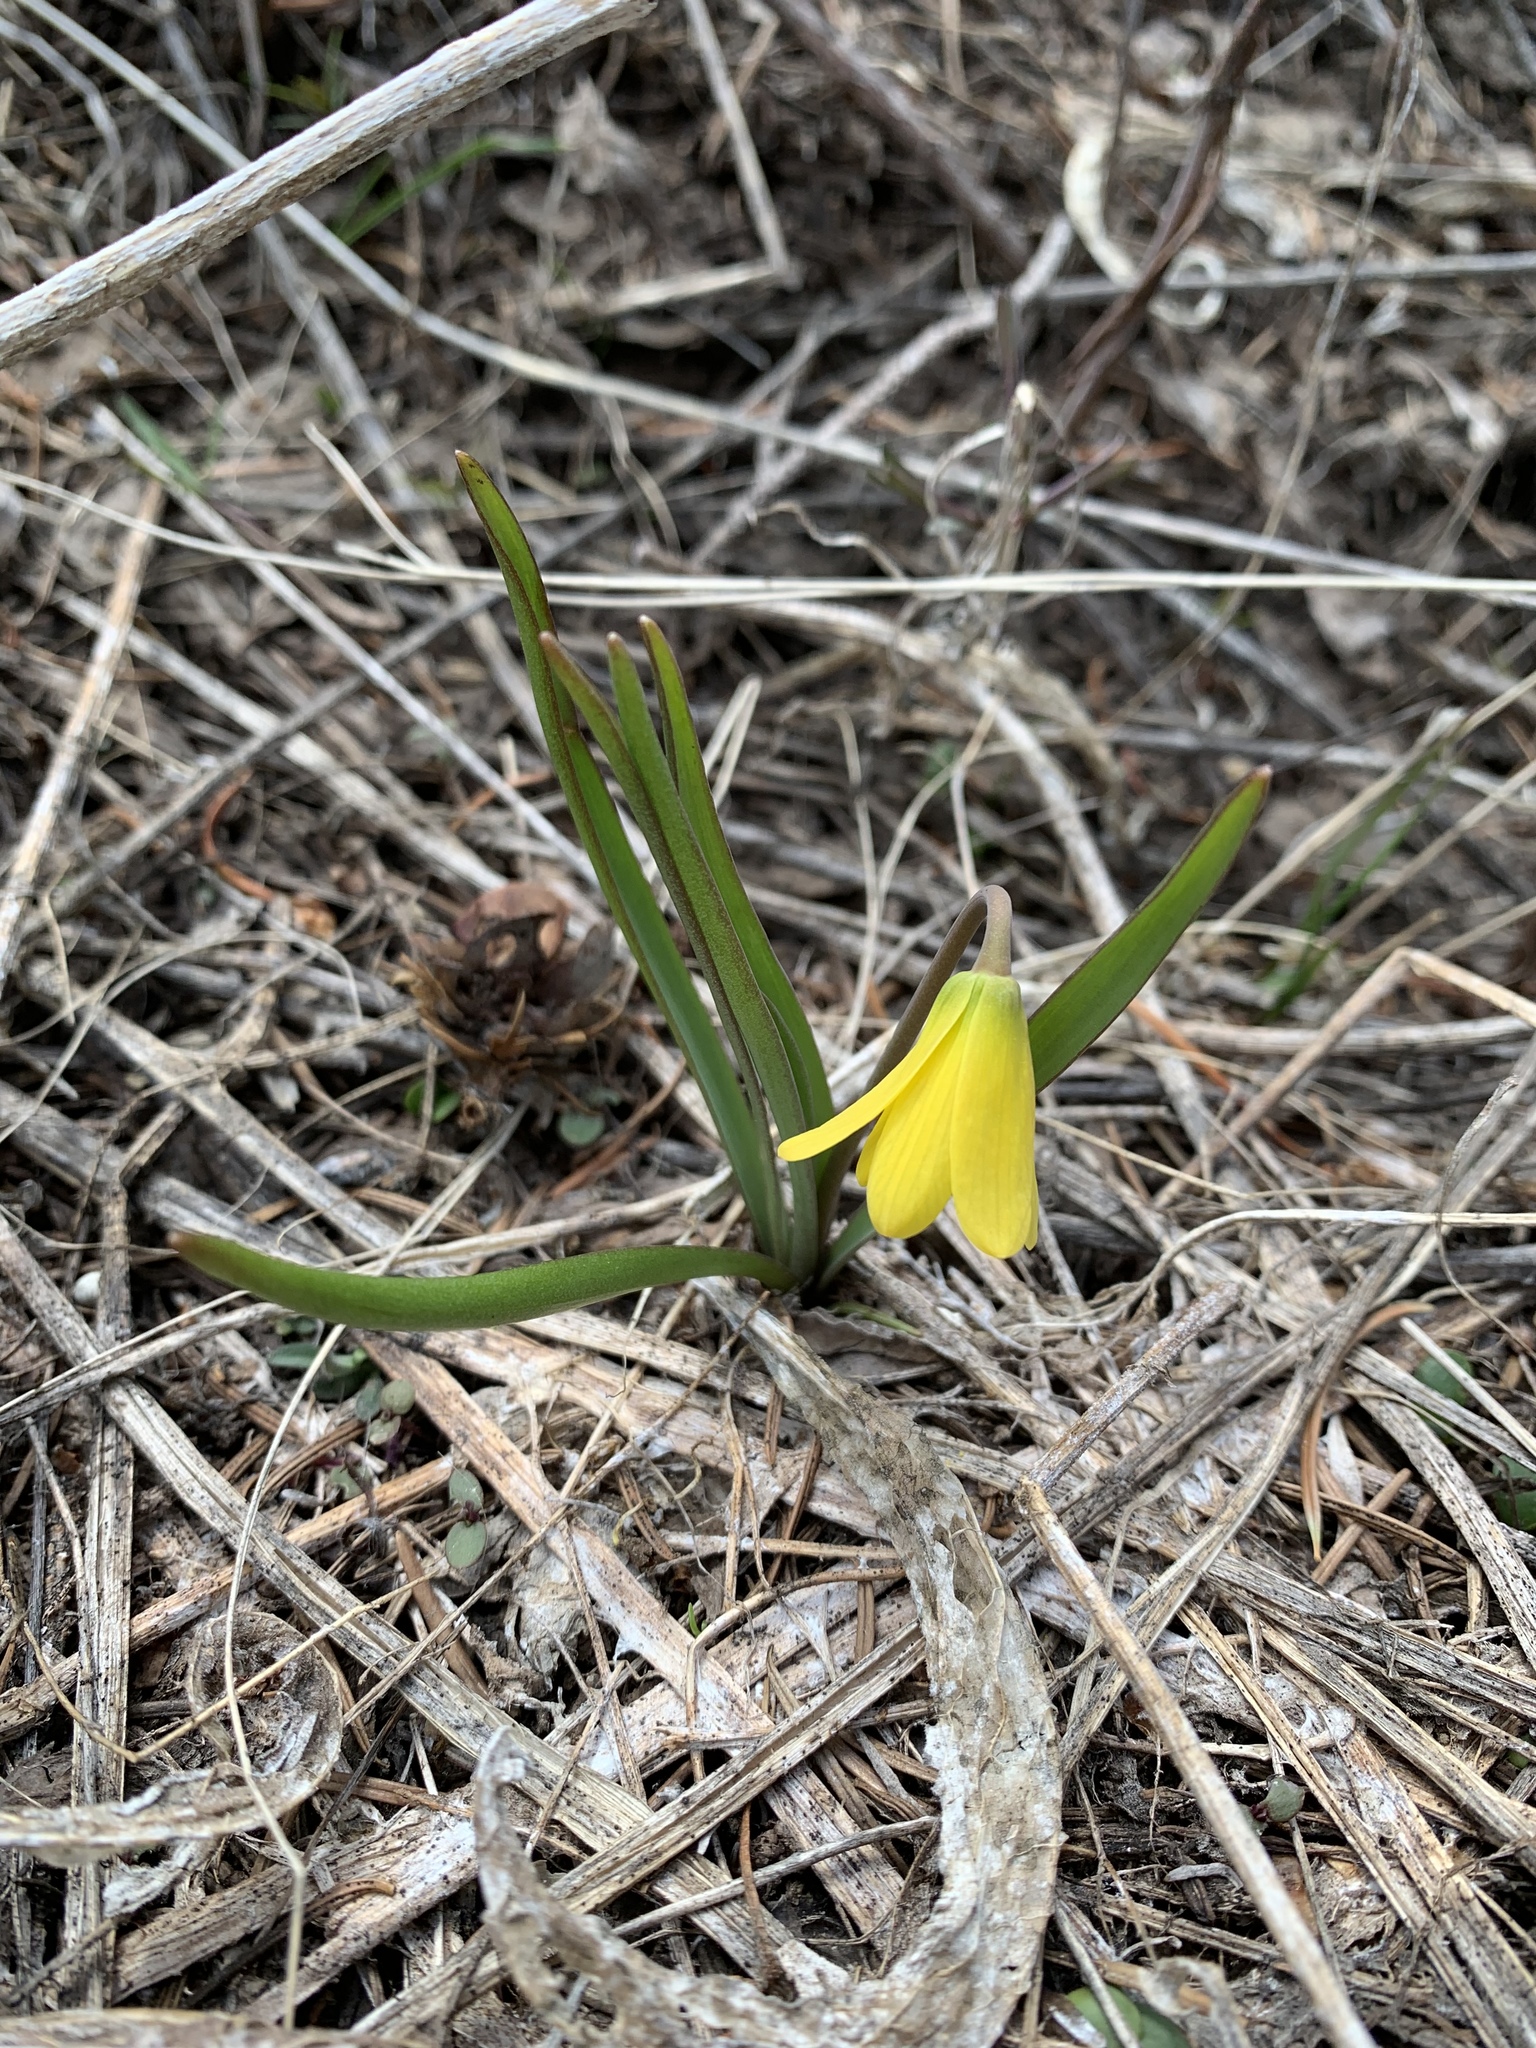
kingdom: Plantae
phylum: Tracheophyta
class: Liliopsida
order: Liliales
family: Liliaceae
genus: Fritillaria
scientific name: Fritillaria pudica
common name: Yellow fritillary
